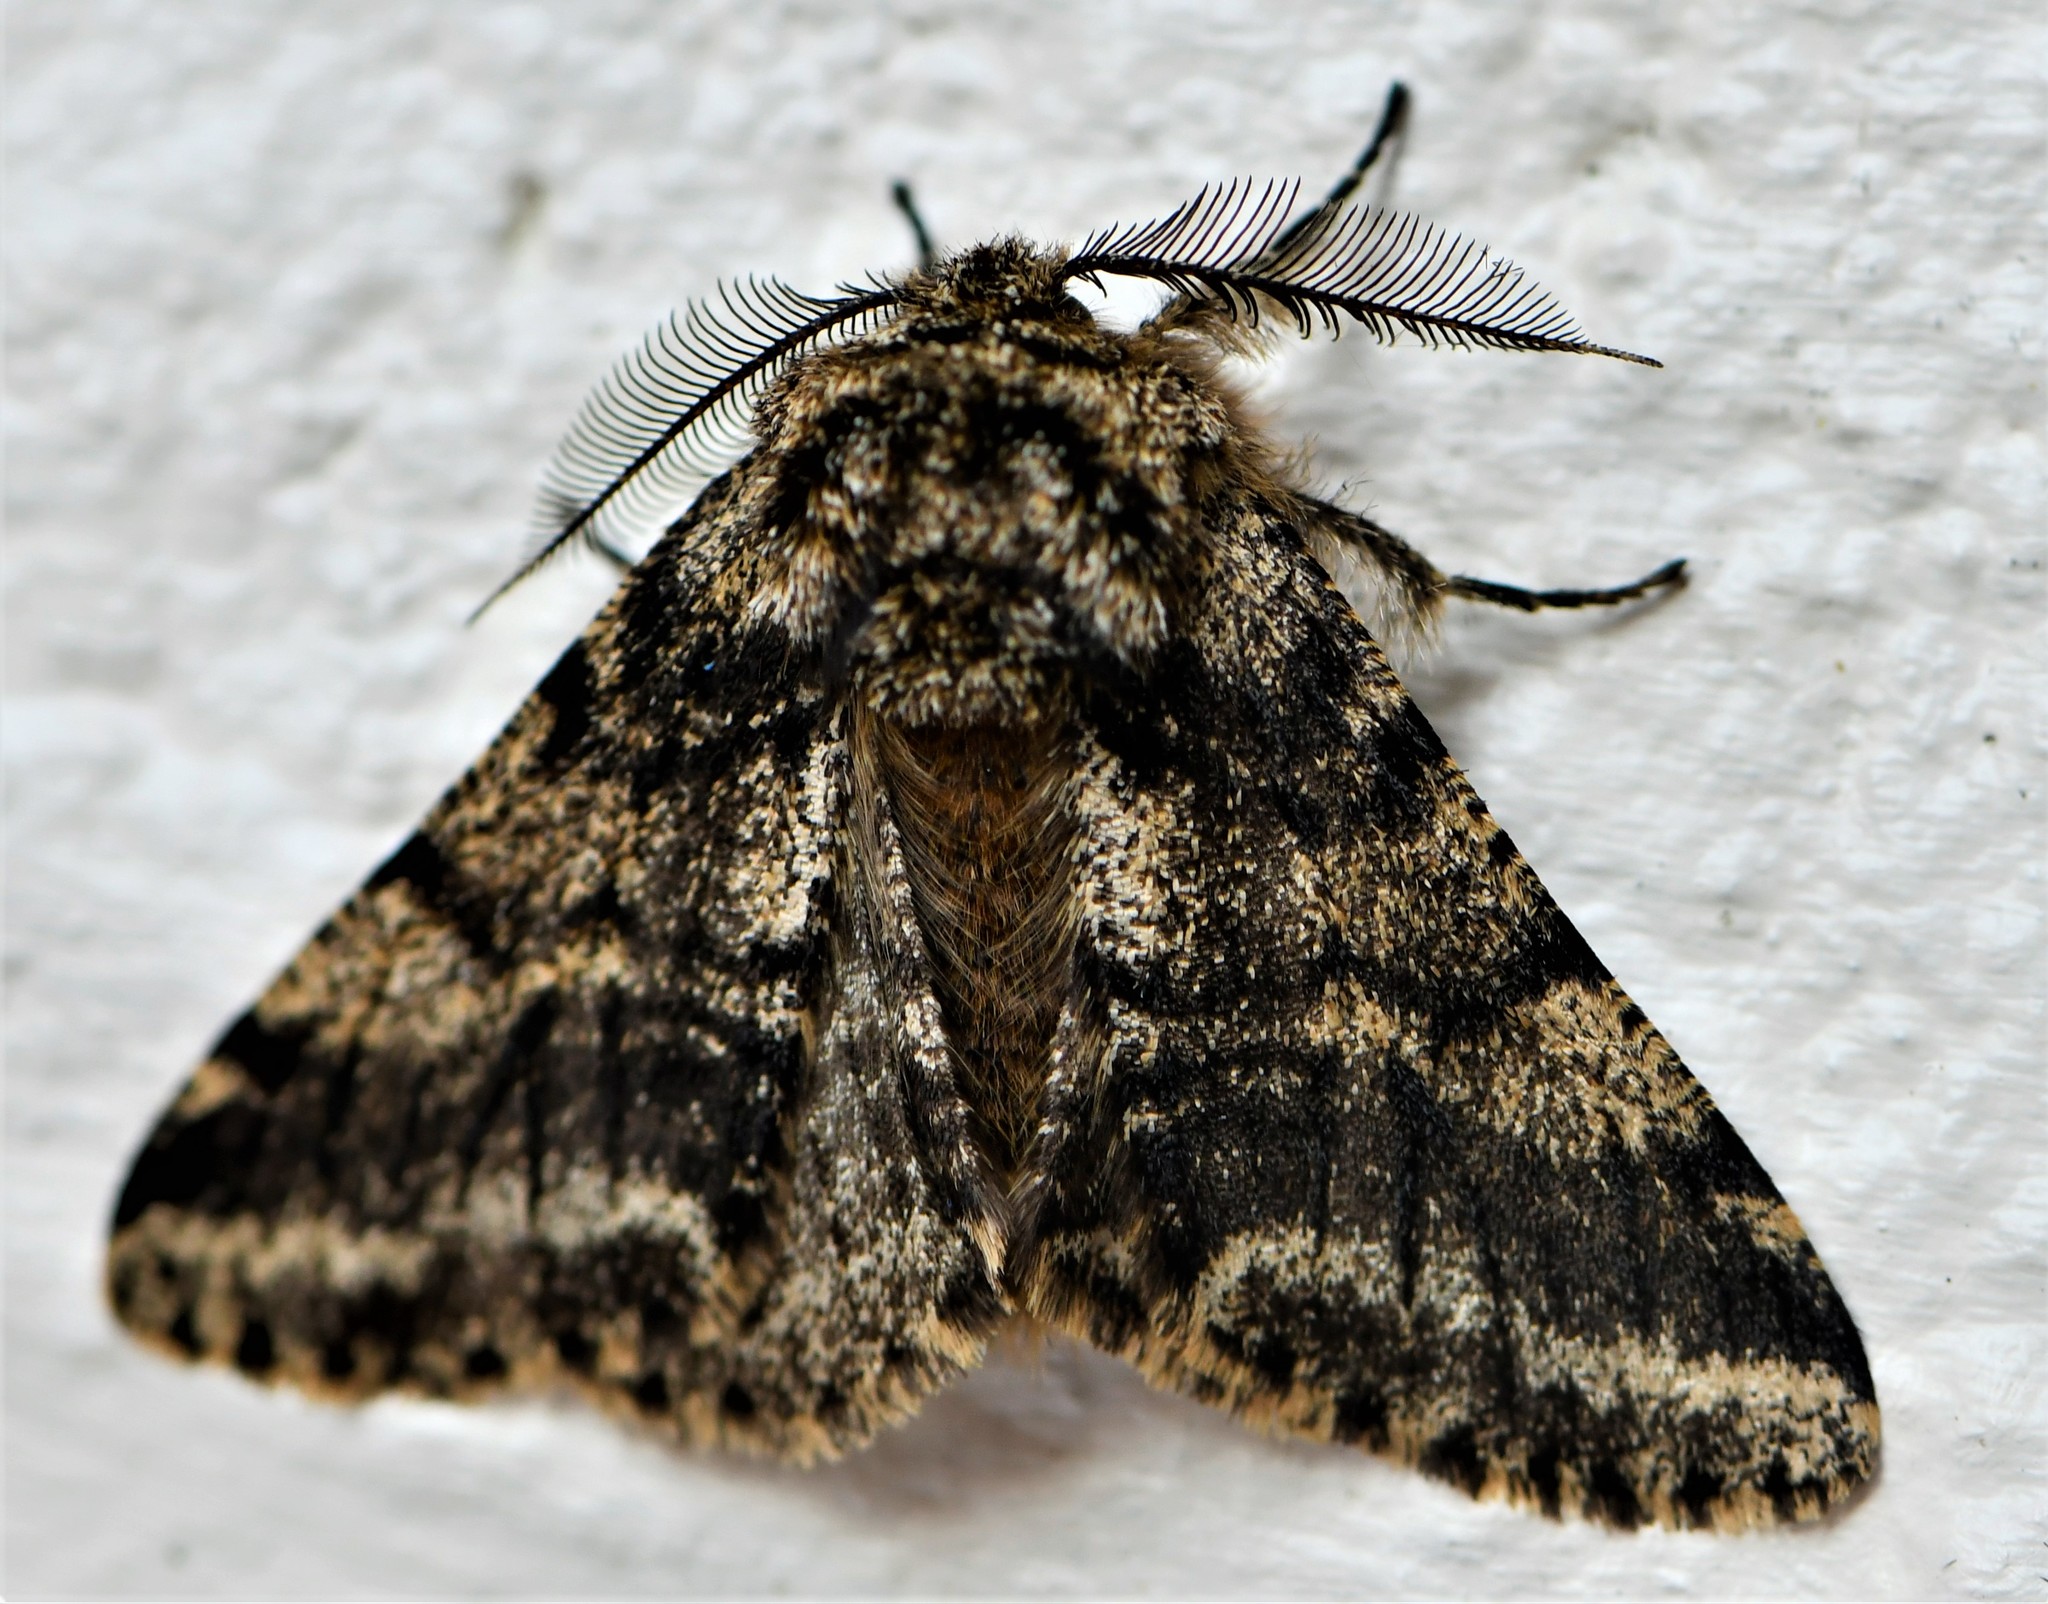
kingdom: Animalia
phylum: Arthropoda
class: Insecta
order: Lepidoptera
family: Geometridae
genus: Lycia
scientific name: Lycia hirtaria
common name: Brindled beauty
